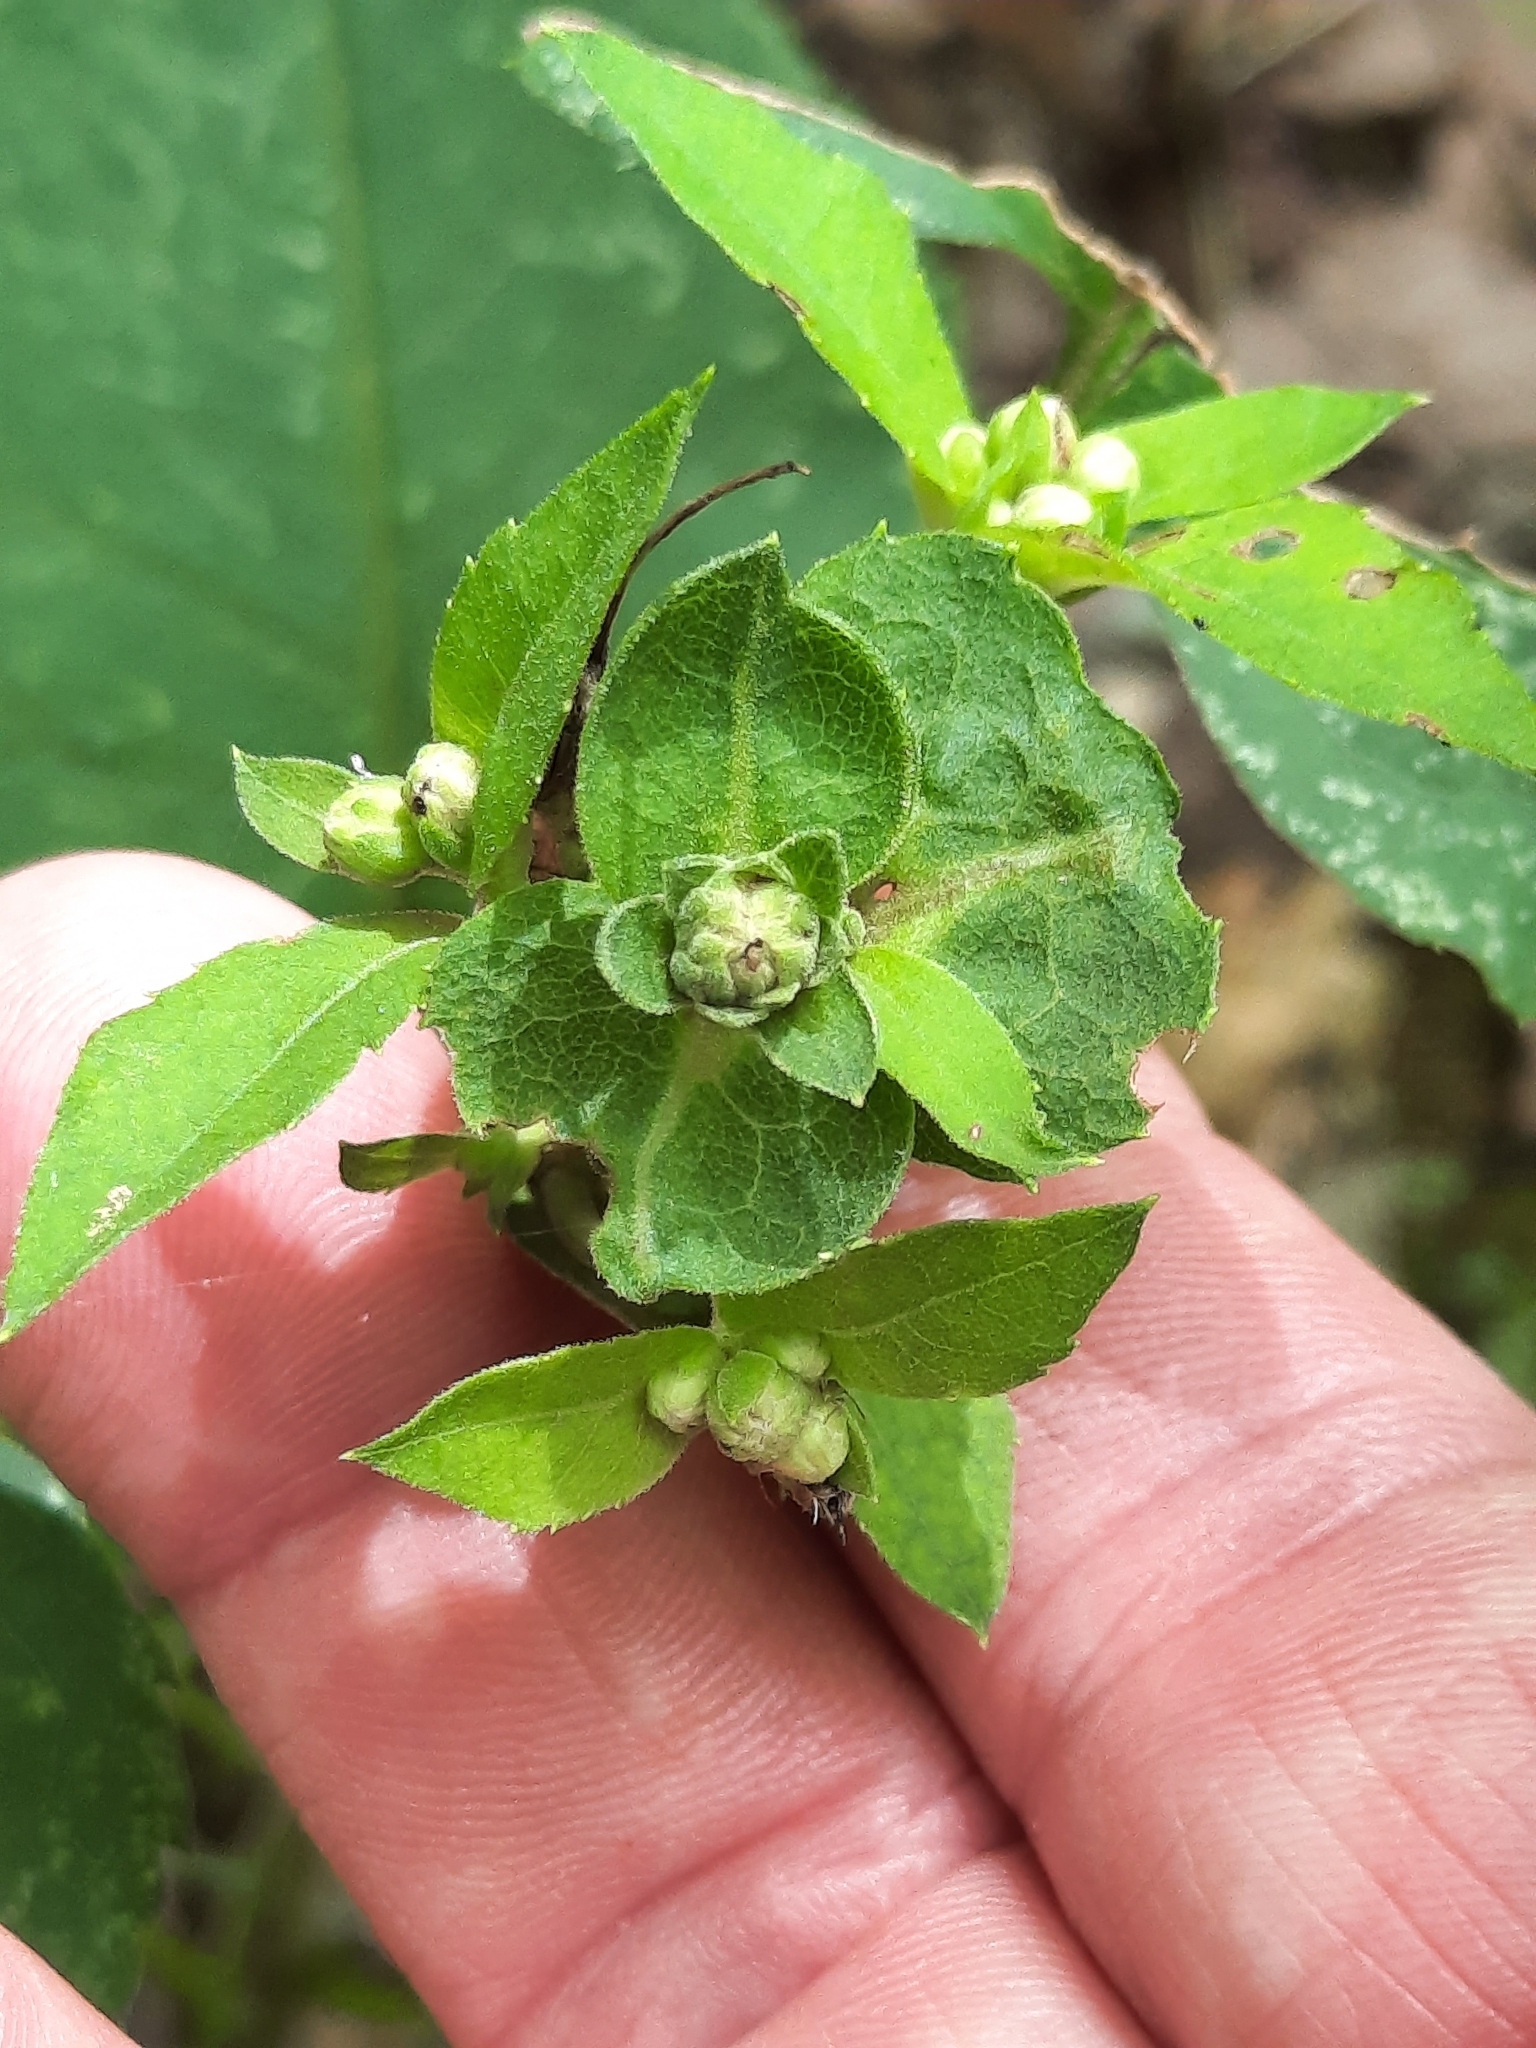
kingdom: Plantae
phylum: Tracheophyta
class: Magnoliopsida
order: Asterales
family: Asteraceae
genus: Eurybia
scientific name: Eurybia macrophylla
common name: Big-leaved aster
